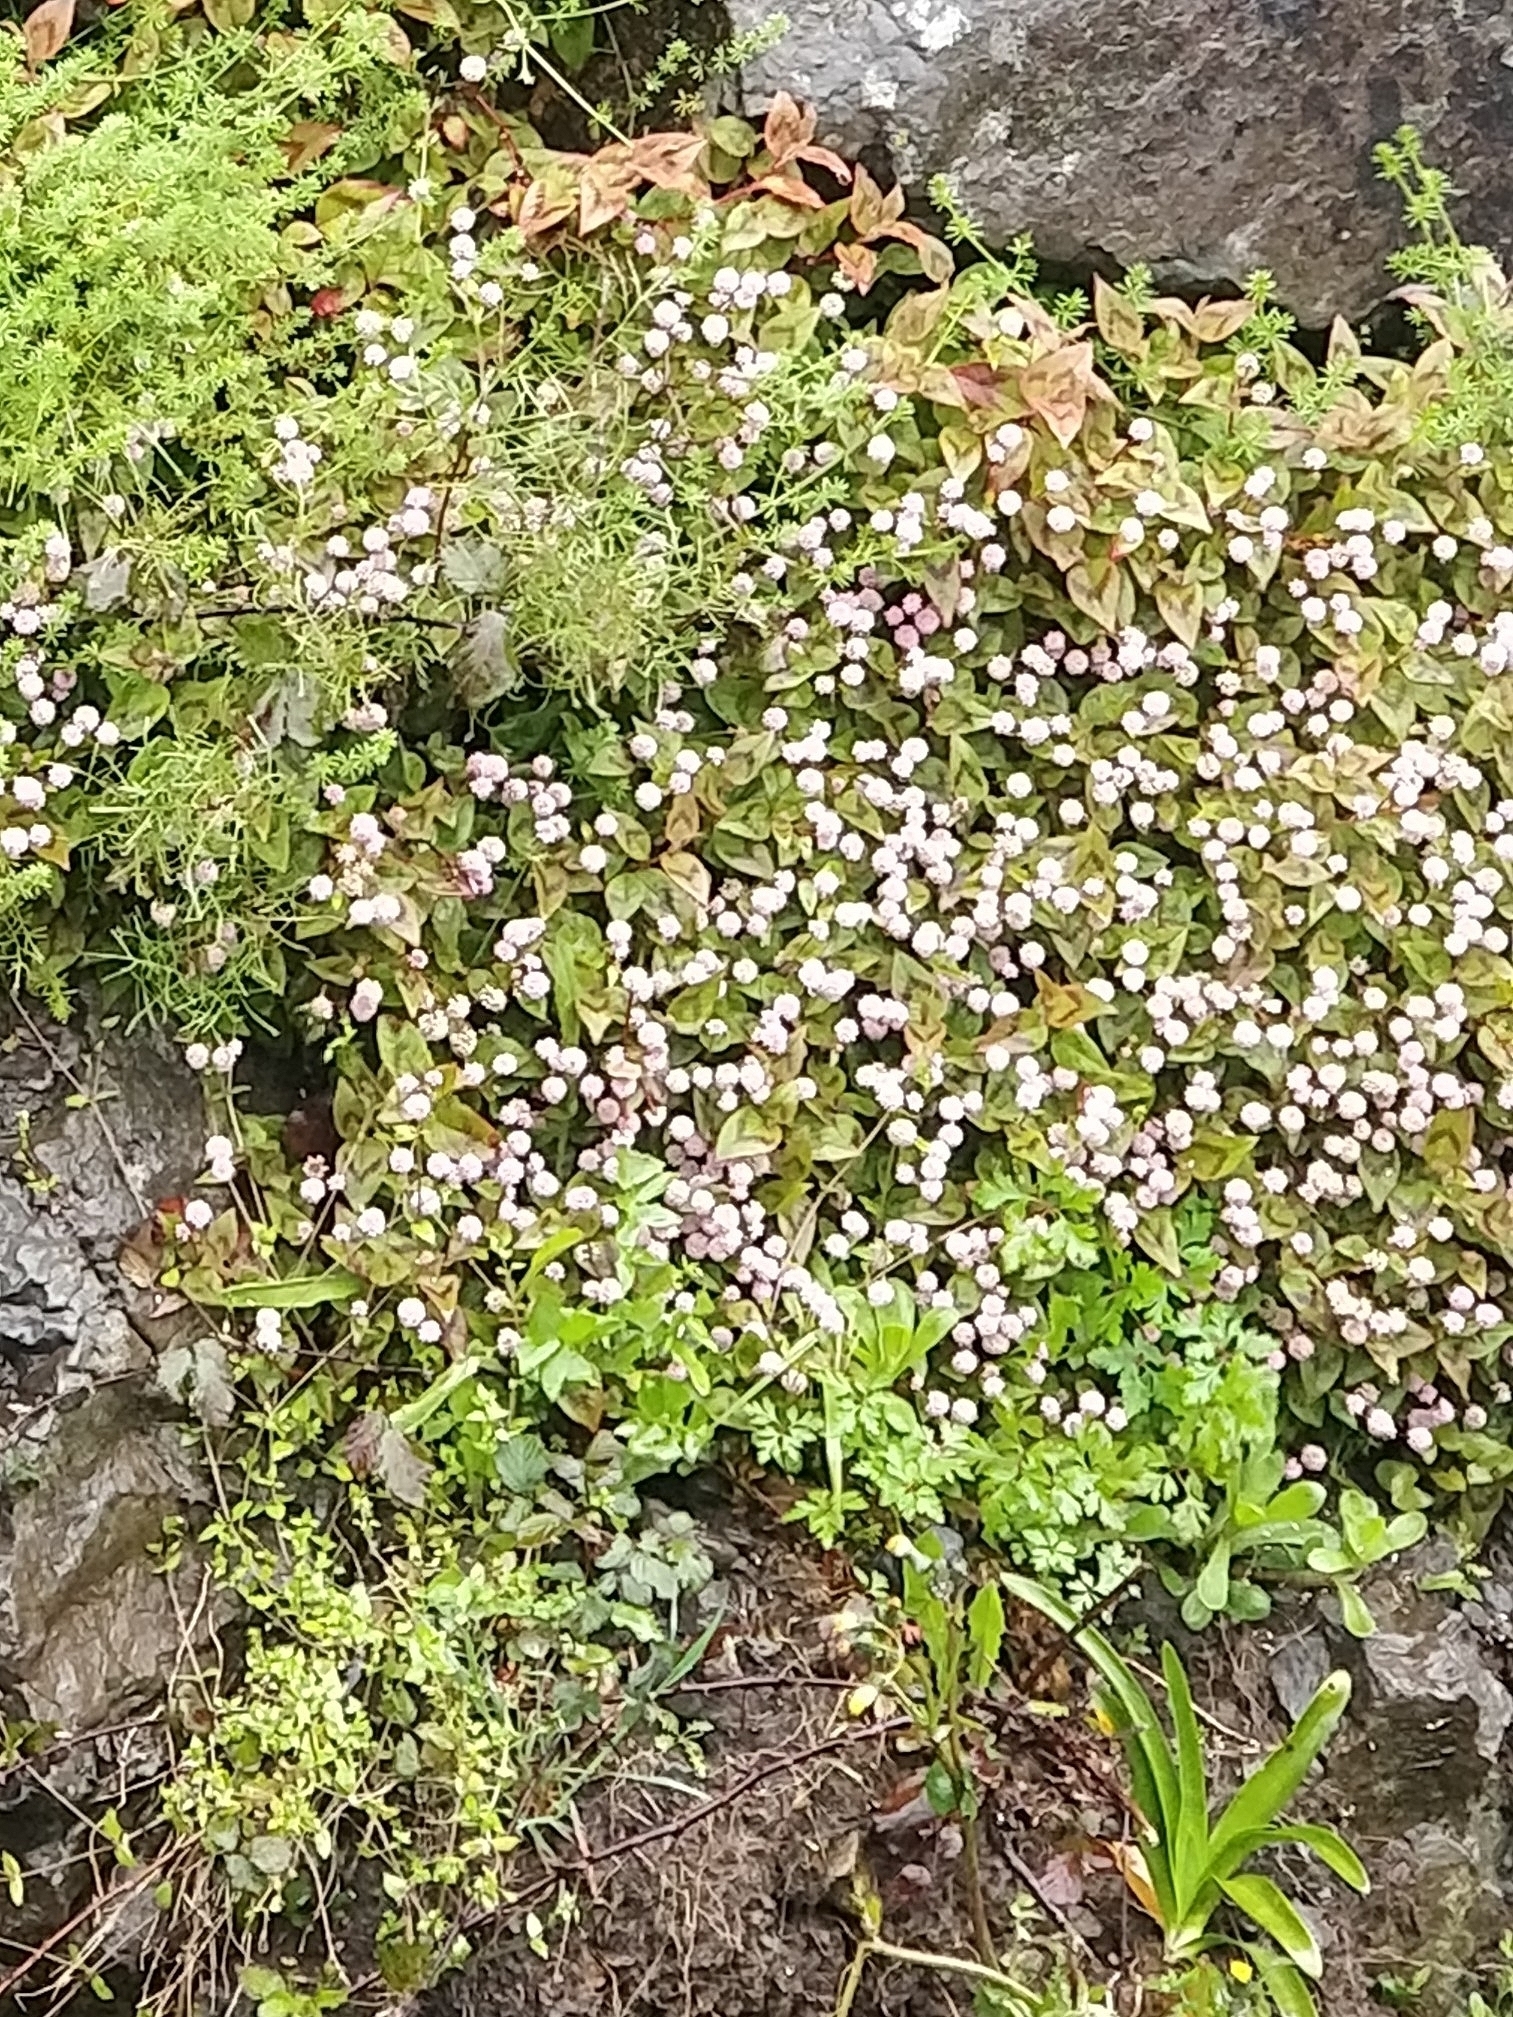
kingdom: Plantae
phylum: Tracheophyta
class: Magnoliopsida
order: Caryophyllales
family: Polygonaceae
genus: Persicaria
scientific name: Persicaria capitata
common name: Pinkhead smartweed
